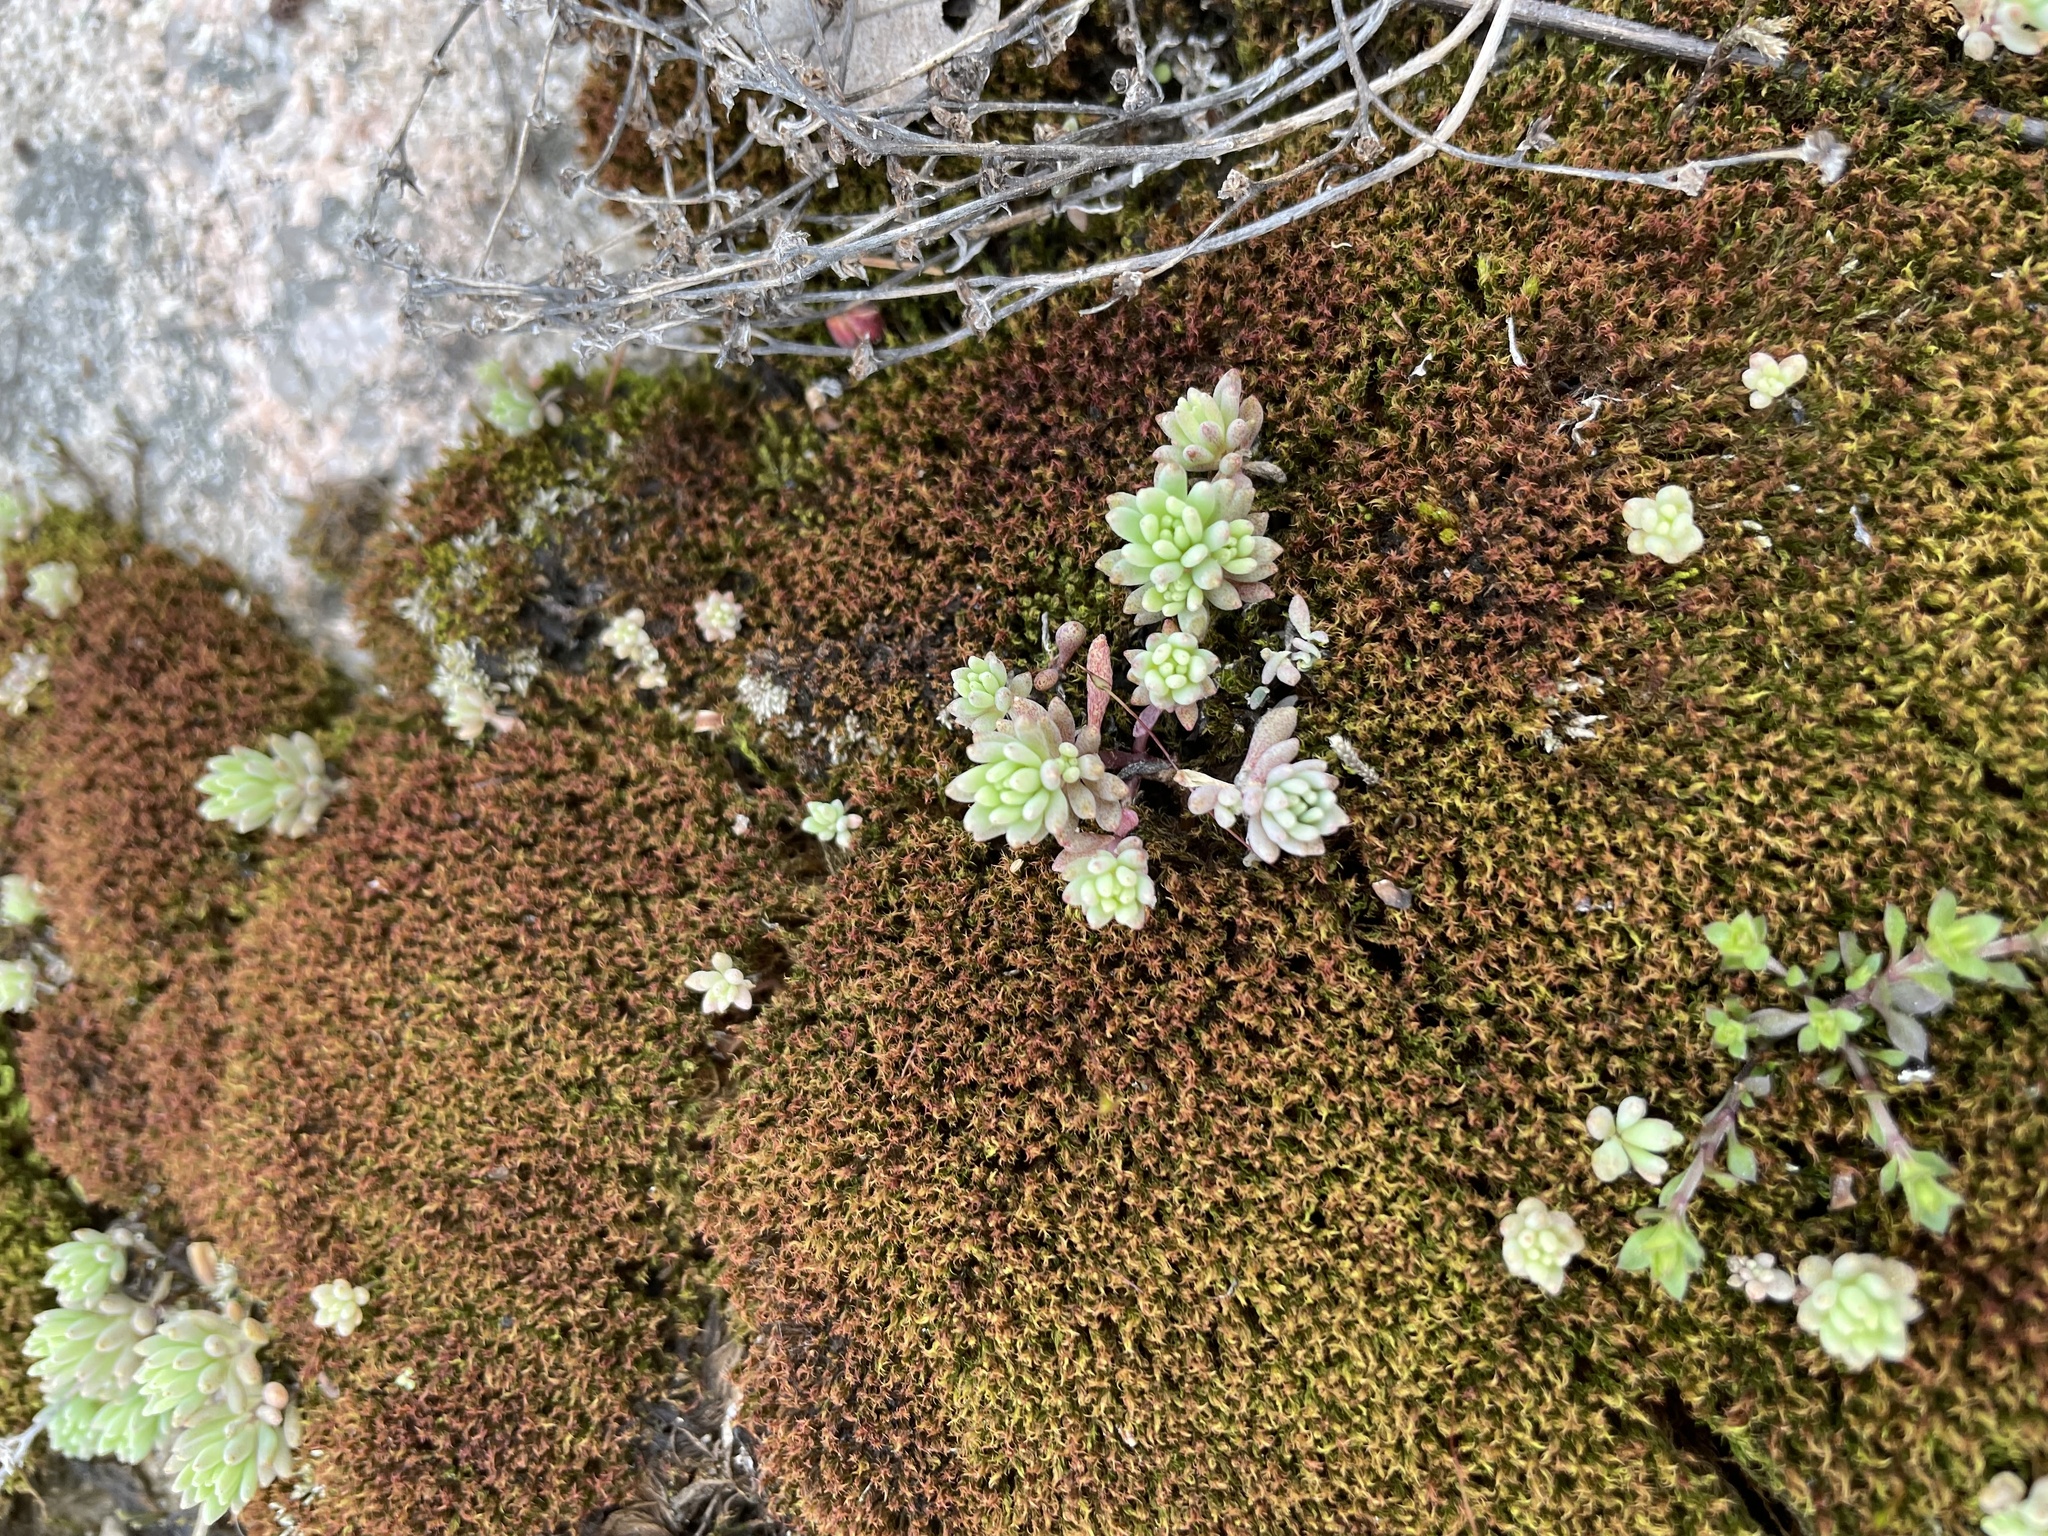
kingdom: Plantae
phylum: Tracheophyta
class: Magnoliopsida
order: Saxifragales
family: Crassulaceae
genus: Sedum
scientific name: Sedum hispanicum
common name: Spanish stonecrop
